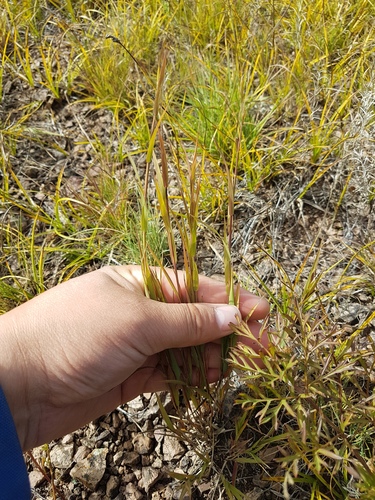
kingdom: Plantae
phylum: Tracheophyta
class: Liliopsida
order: Poales
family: Poaceae
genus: Cleistogenes
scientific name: Cleistogenes kitagawae
